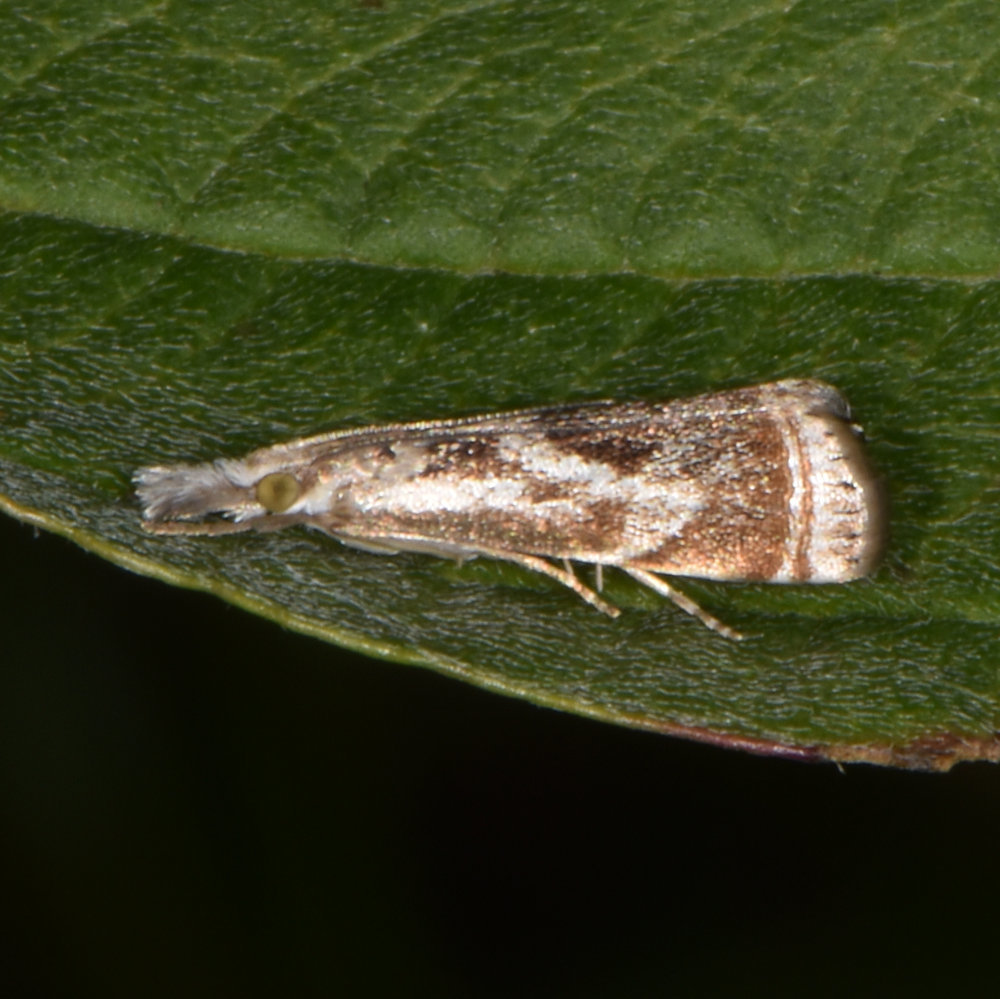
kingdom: Animalia
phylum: Arthropoda
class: Insecta
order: Lepidoptera
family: Crambidae
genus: Microcrambus
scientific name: Microcrambus elegans
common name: Elegant grass-veneer
